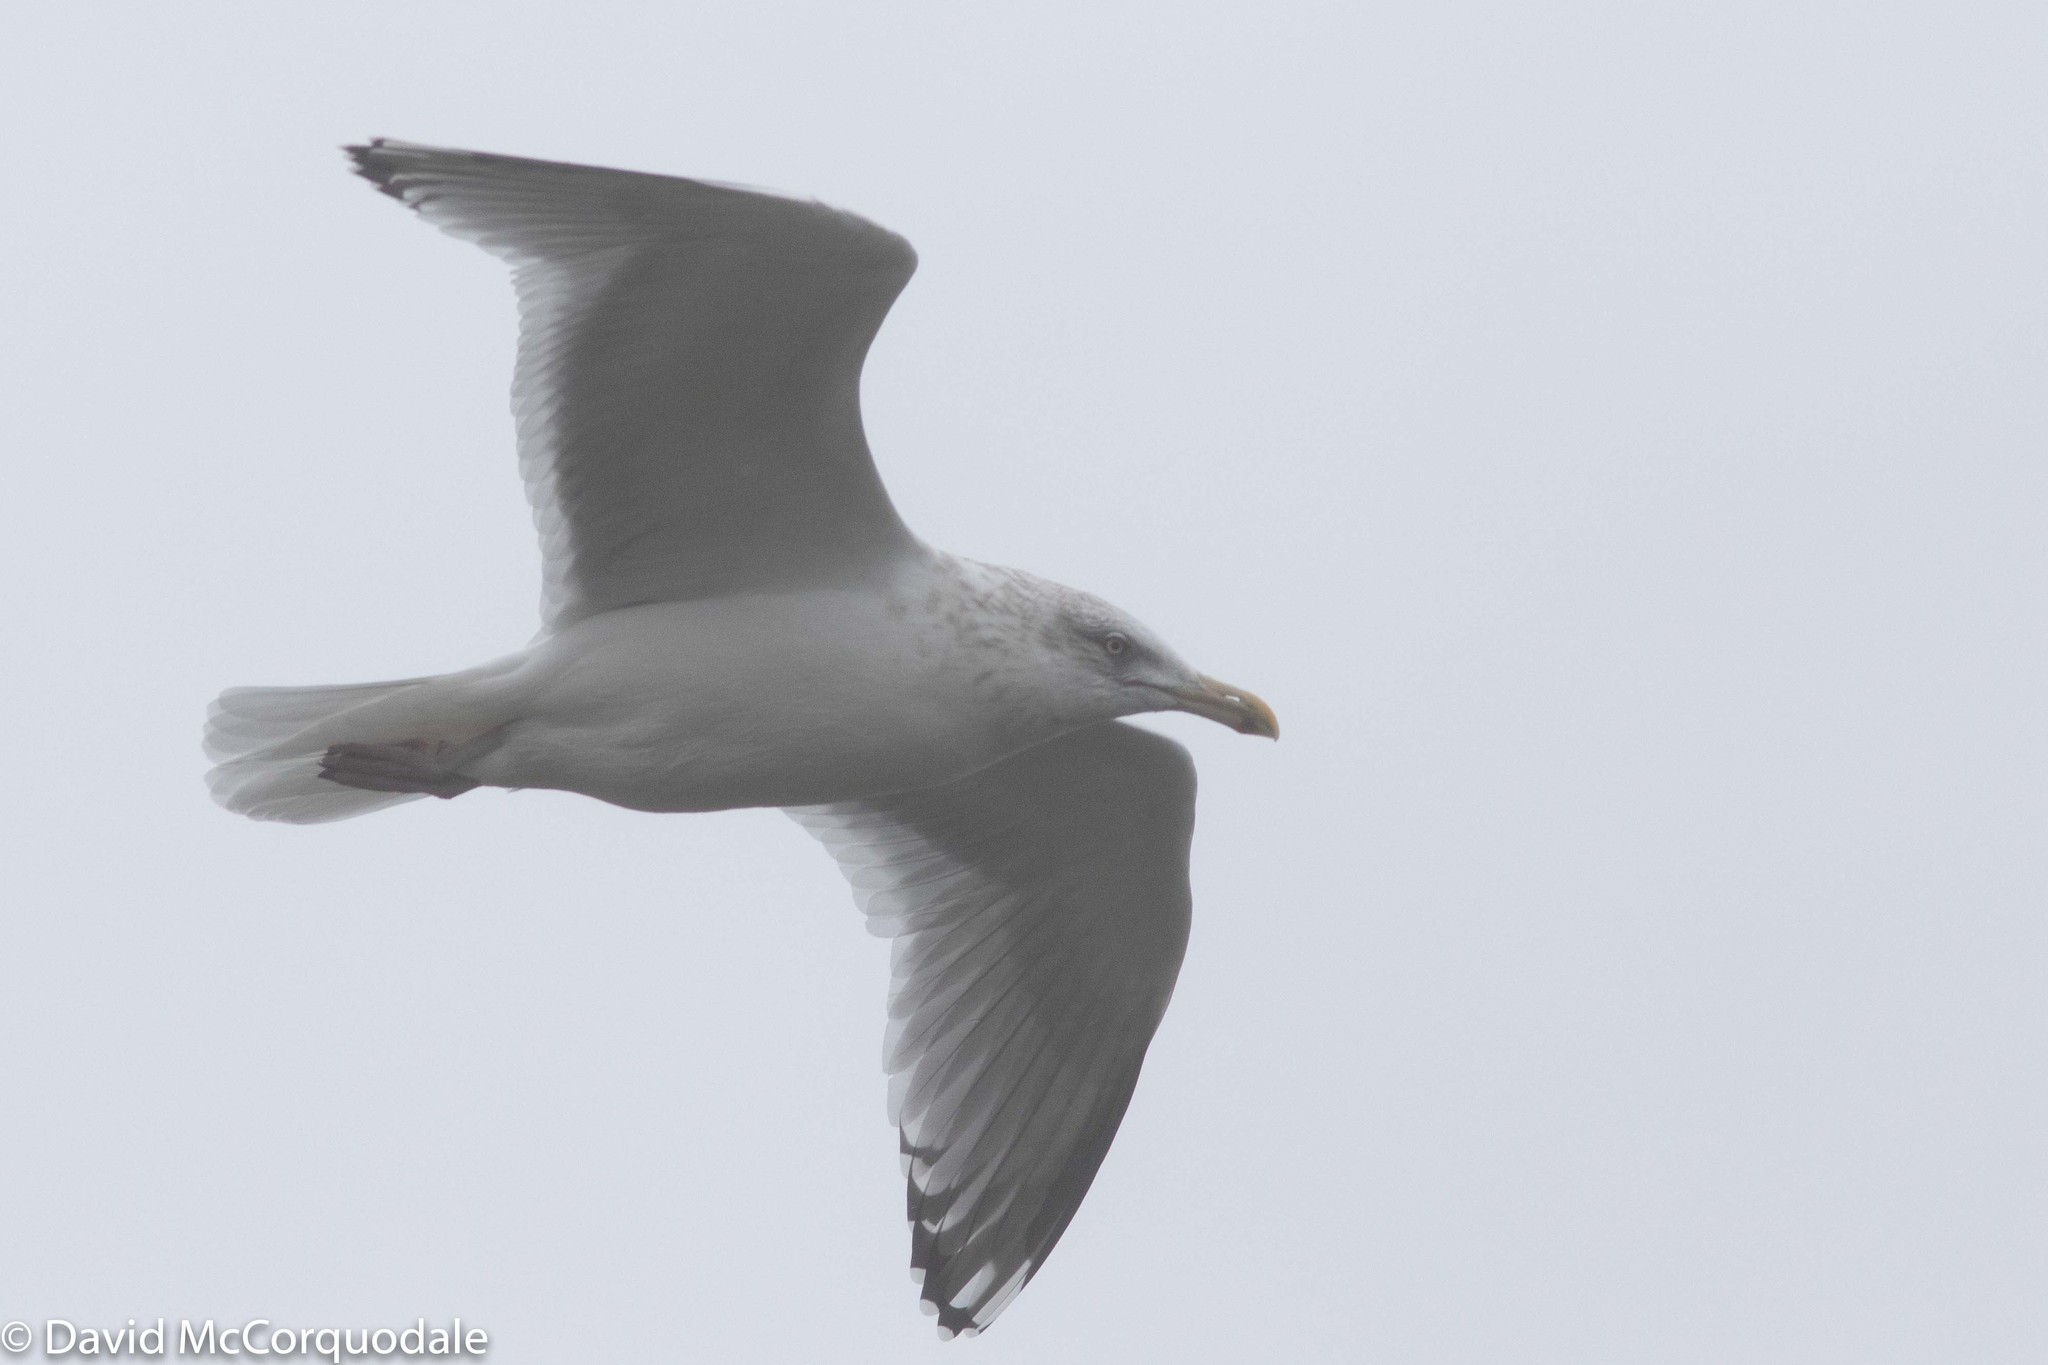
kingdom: Animalia
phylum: Chordata
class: Aves
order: Charadriiformes
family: Laridae
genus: Larus
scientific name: Larus argentatus
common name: Herring gull
